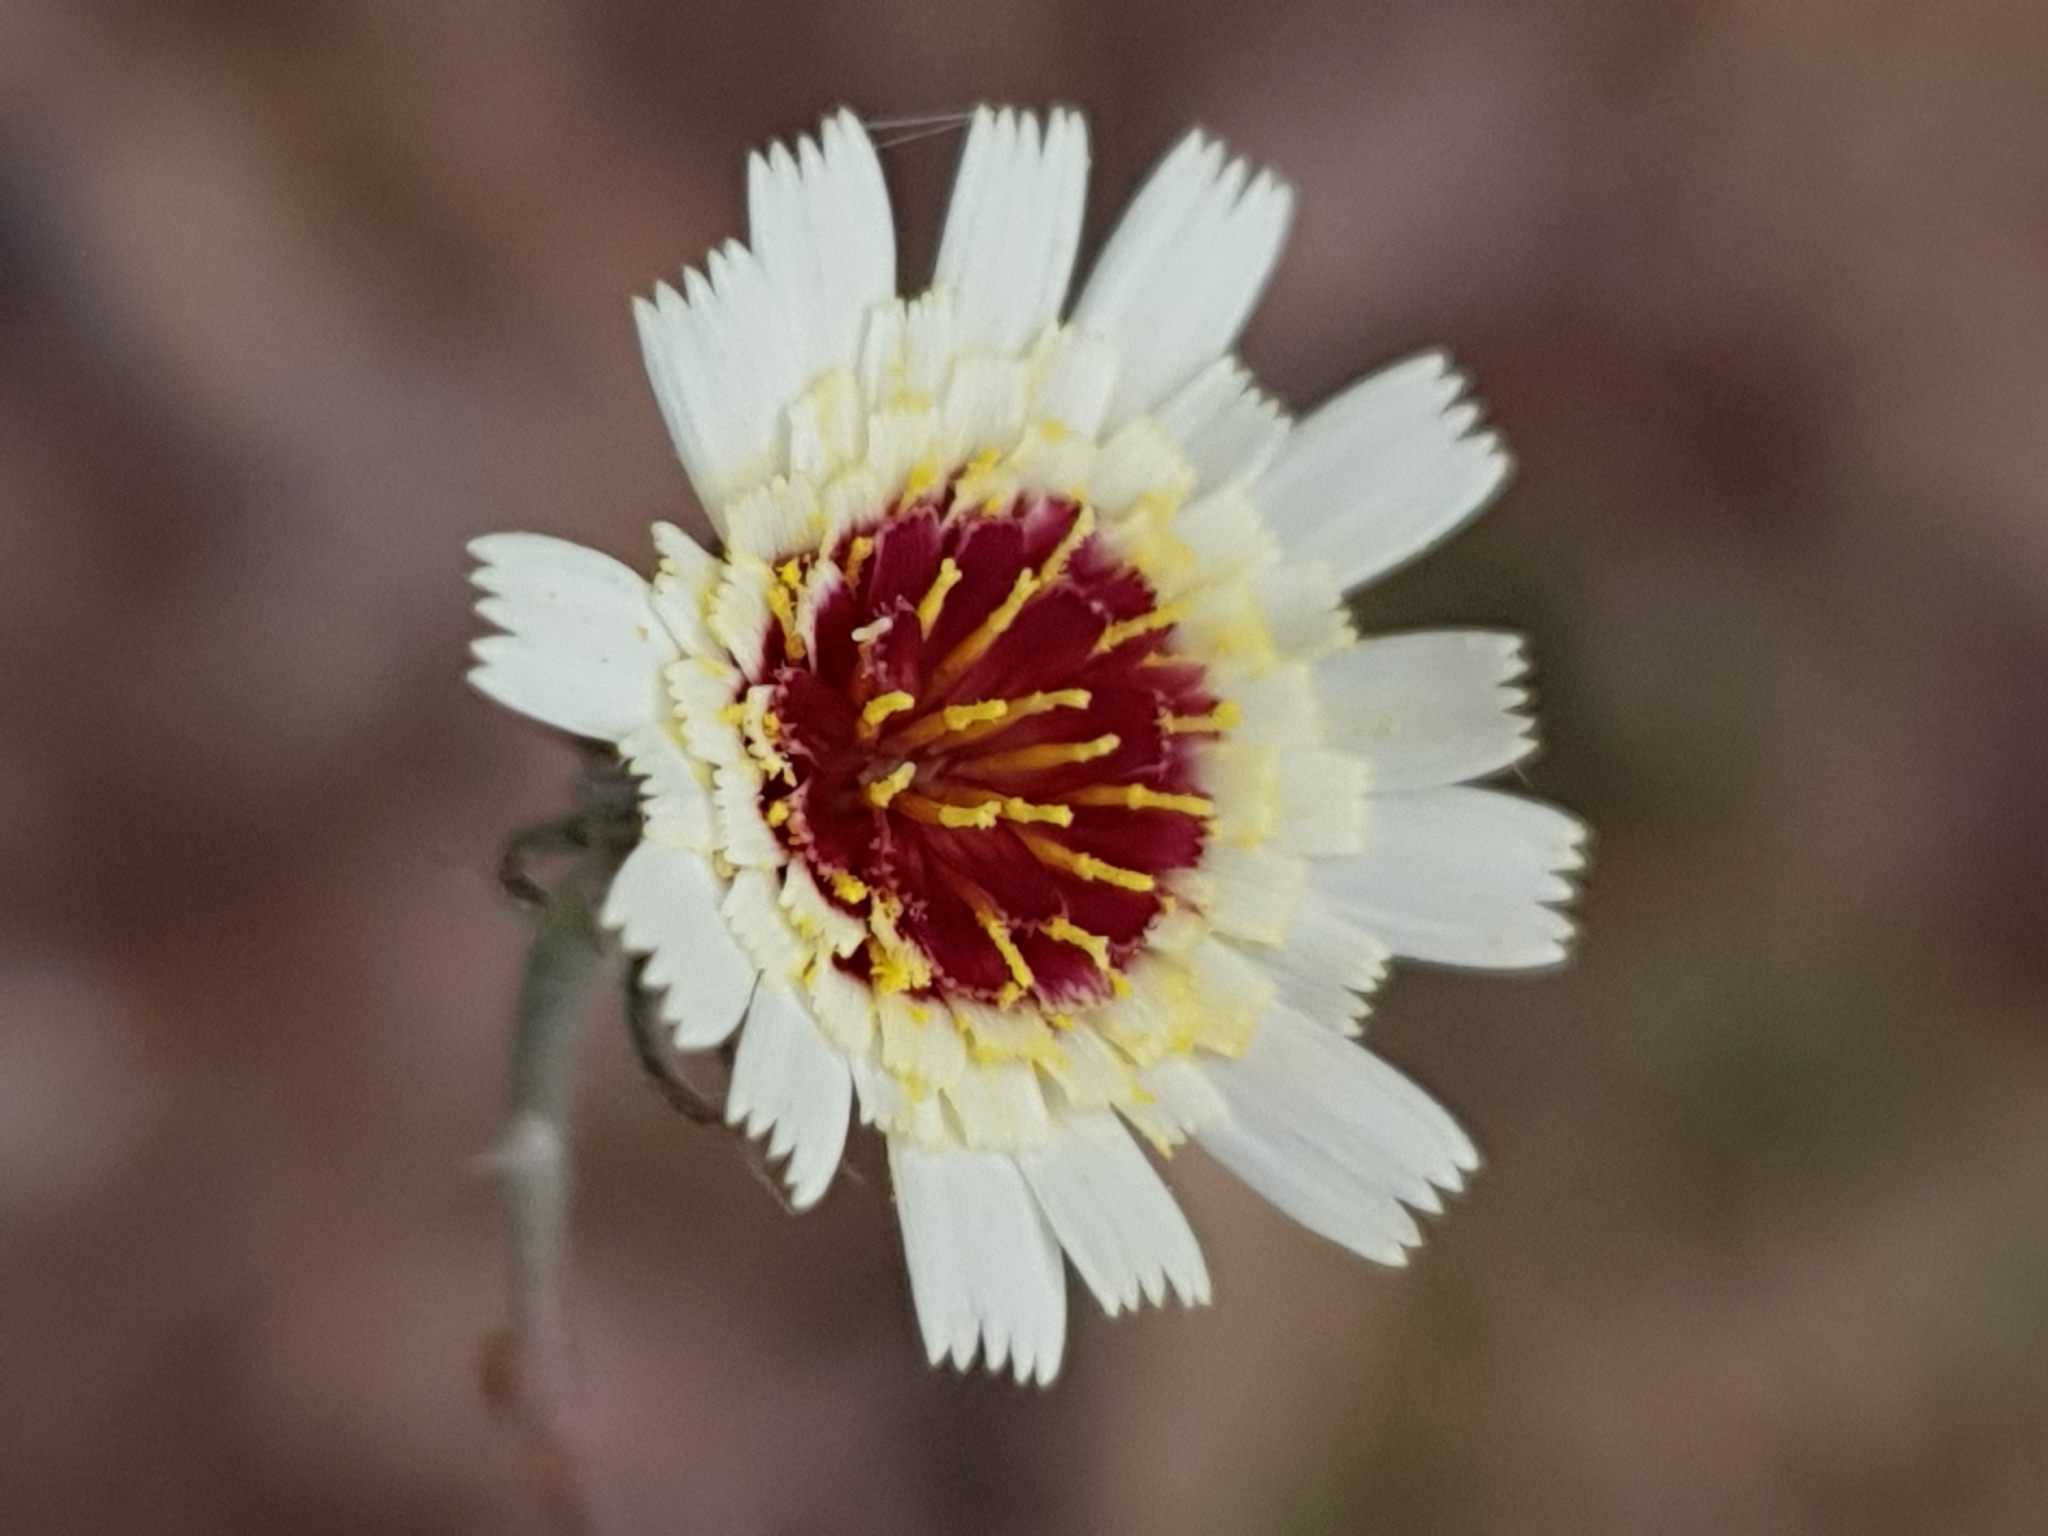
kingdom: Plantae
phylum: Tracheophyta
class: Magnoliopsida
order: Asterales
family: Asteraceae
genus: Tolpis
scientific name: Tolpis barbata
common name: Yellow hawkweed
